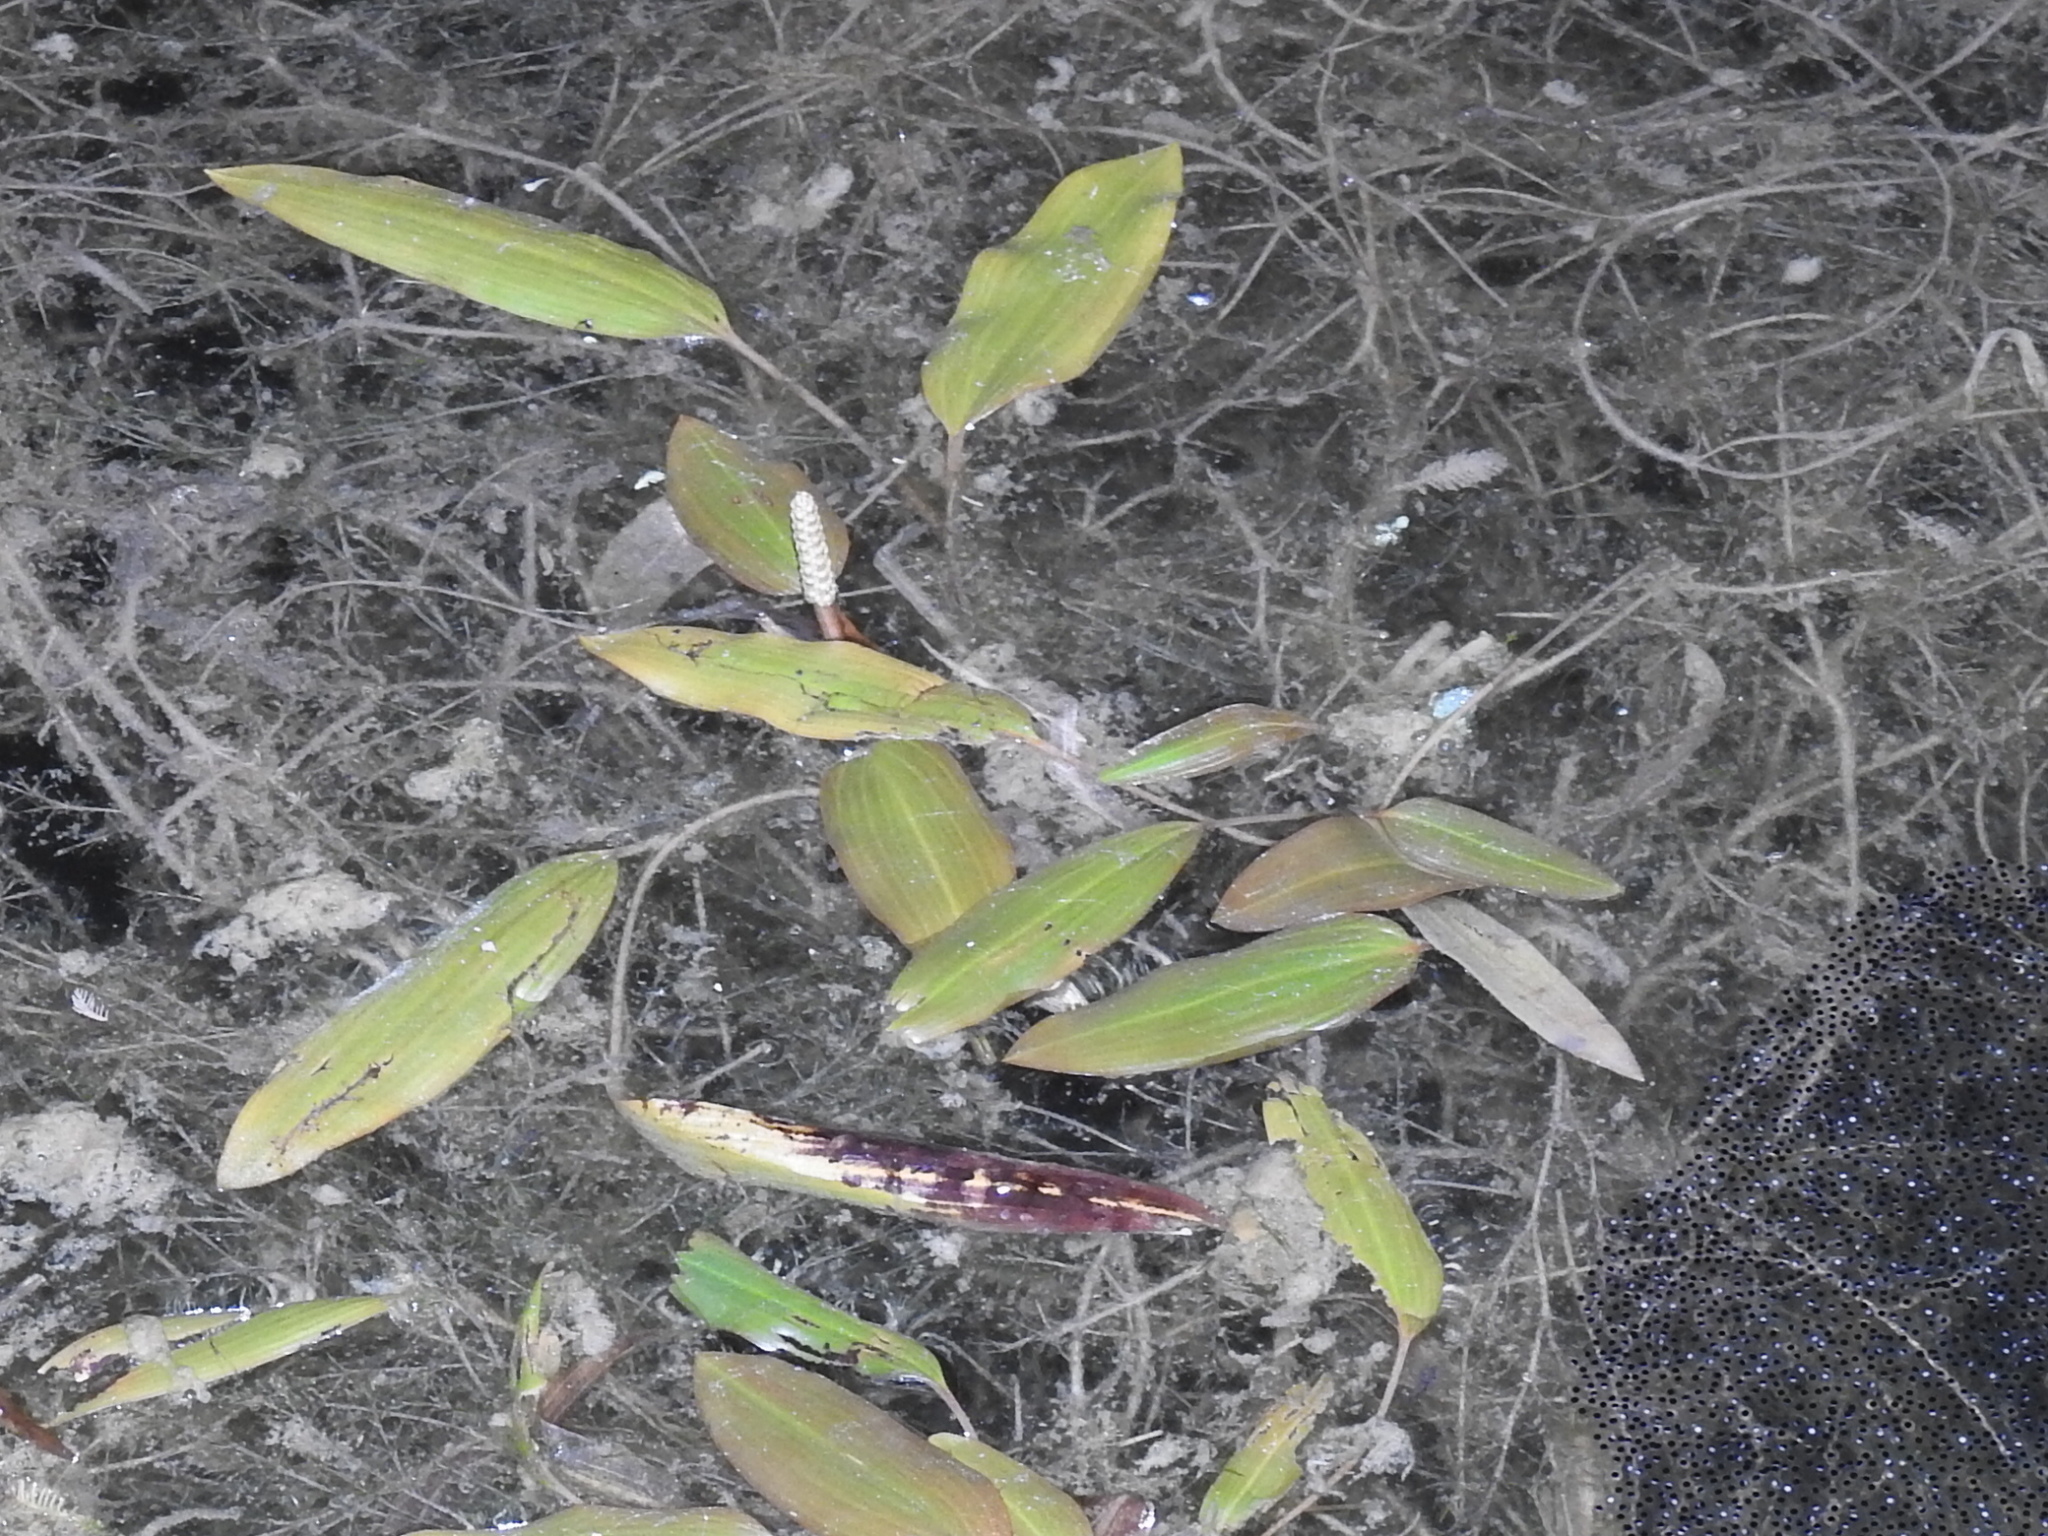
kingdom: Plantae
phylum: Tracheophyta
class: Liliopsida
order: Alismatales
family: Potamogetonaceae
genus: Potamogeton
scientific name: Potamogeton nodosus
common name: Loddon pondweed
